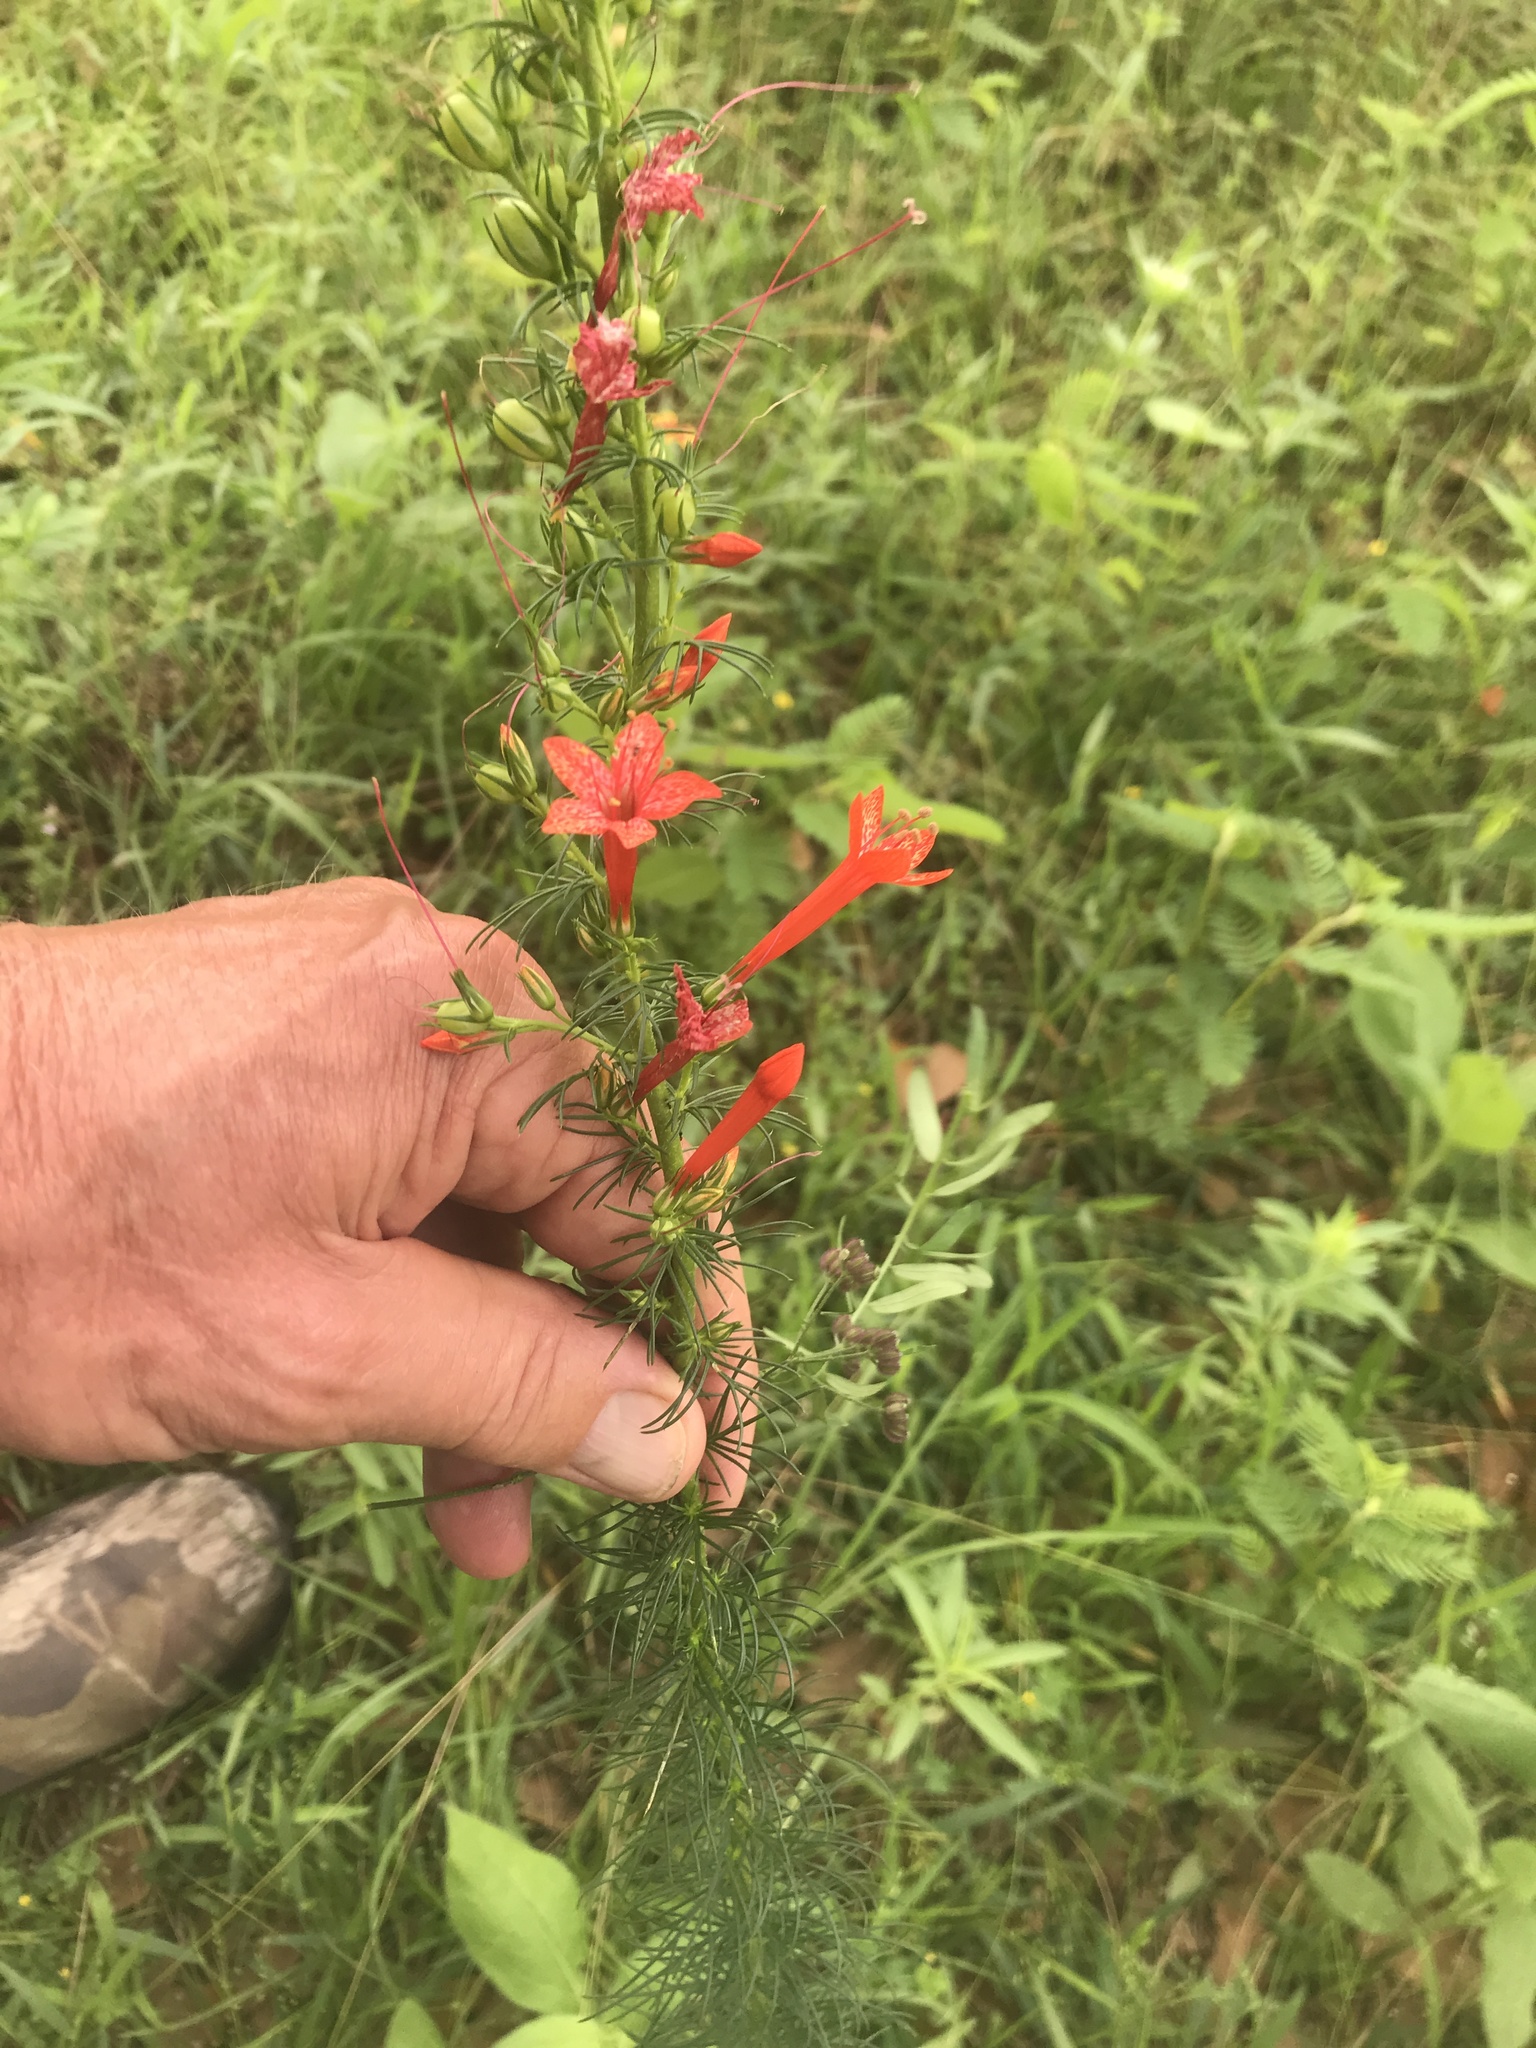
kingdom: Plantae
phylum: Tracheophyta
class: Magnoliopsida
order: Ericales
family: Polemoniaceae
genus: Ipomopsis
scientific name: Ipomopsis rubra
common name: Skyrocket
